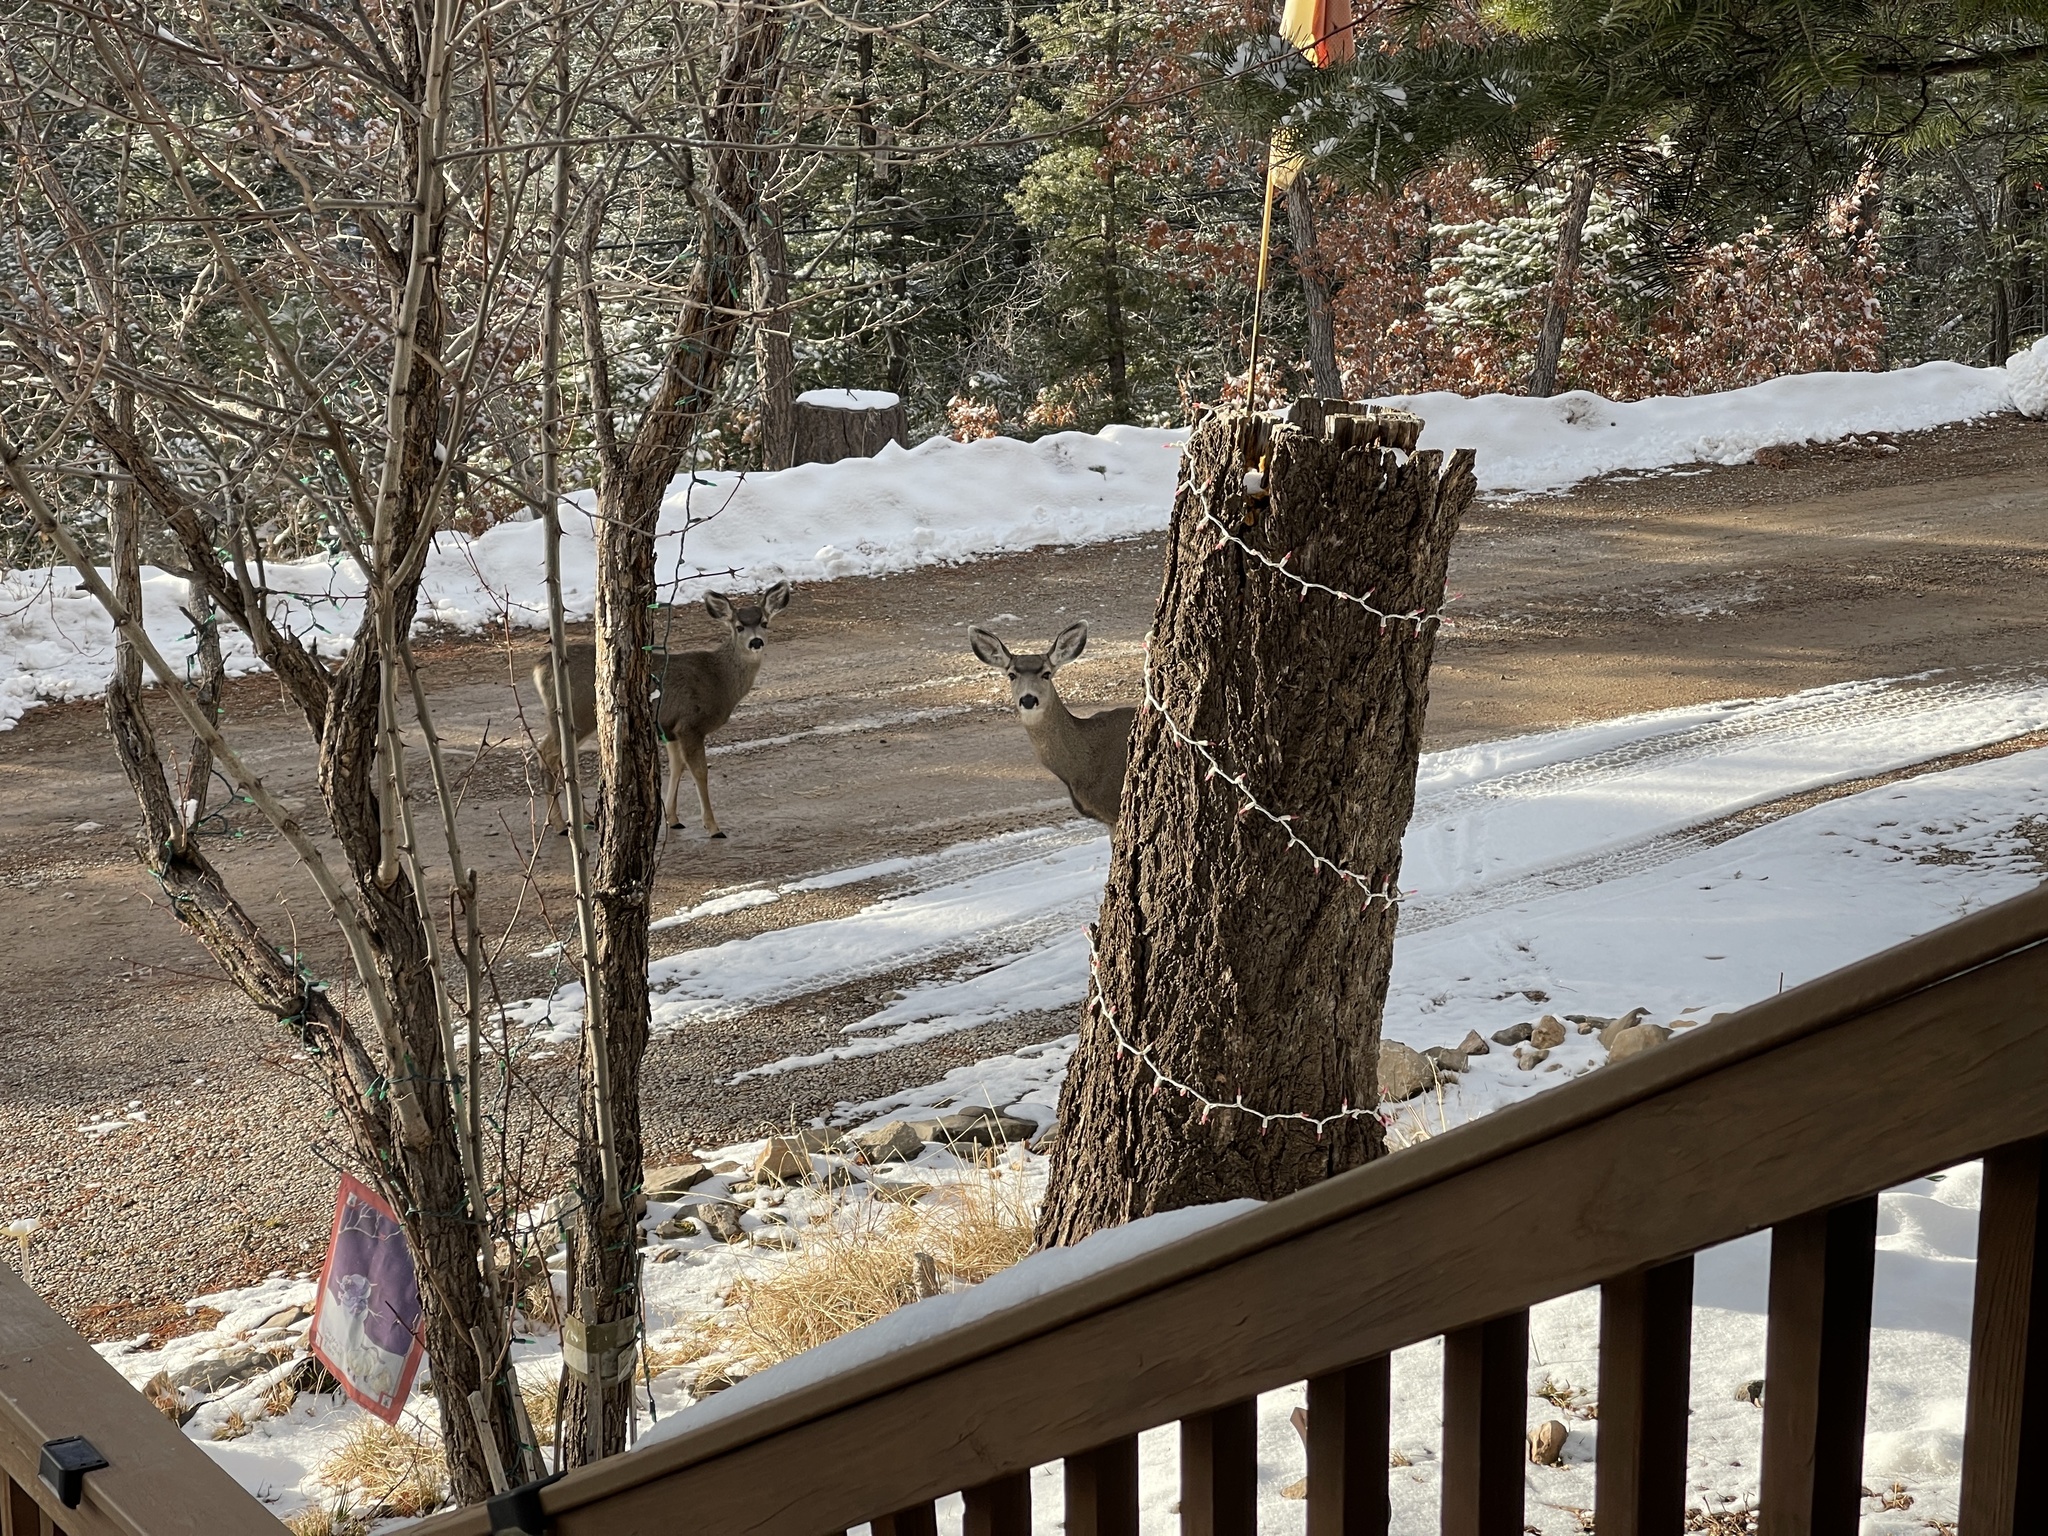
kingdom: Animalia
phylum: Chordata
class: Mammalia
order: Artiodactyla
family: Cervidae
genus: Odocoileus
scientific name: Odocoileus hemionus
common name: Mule deer
